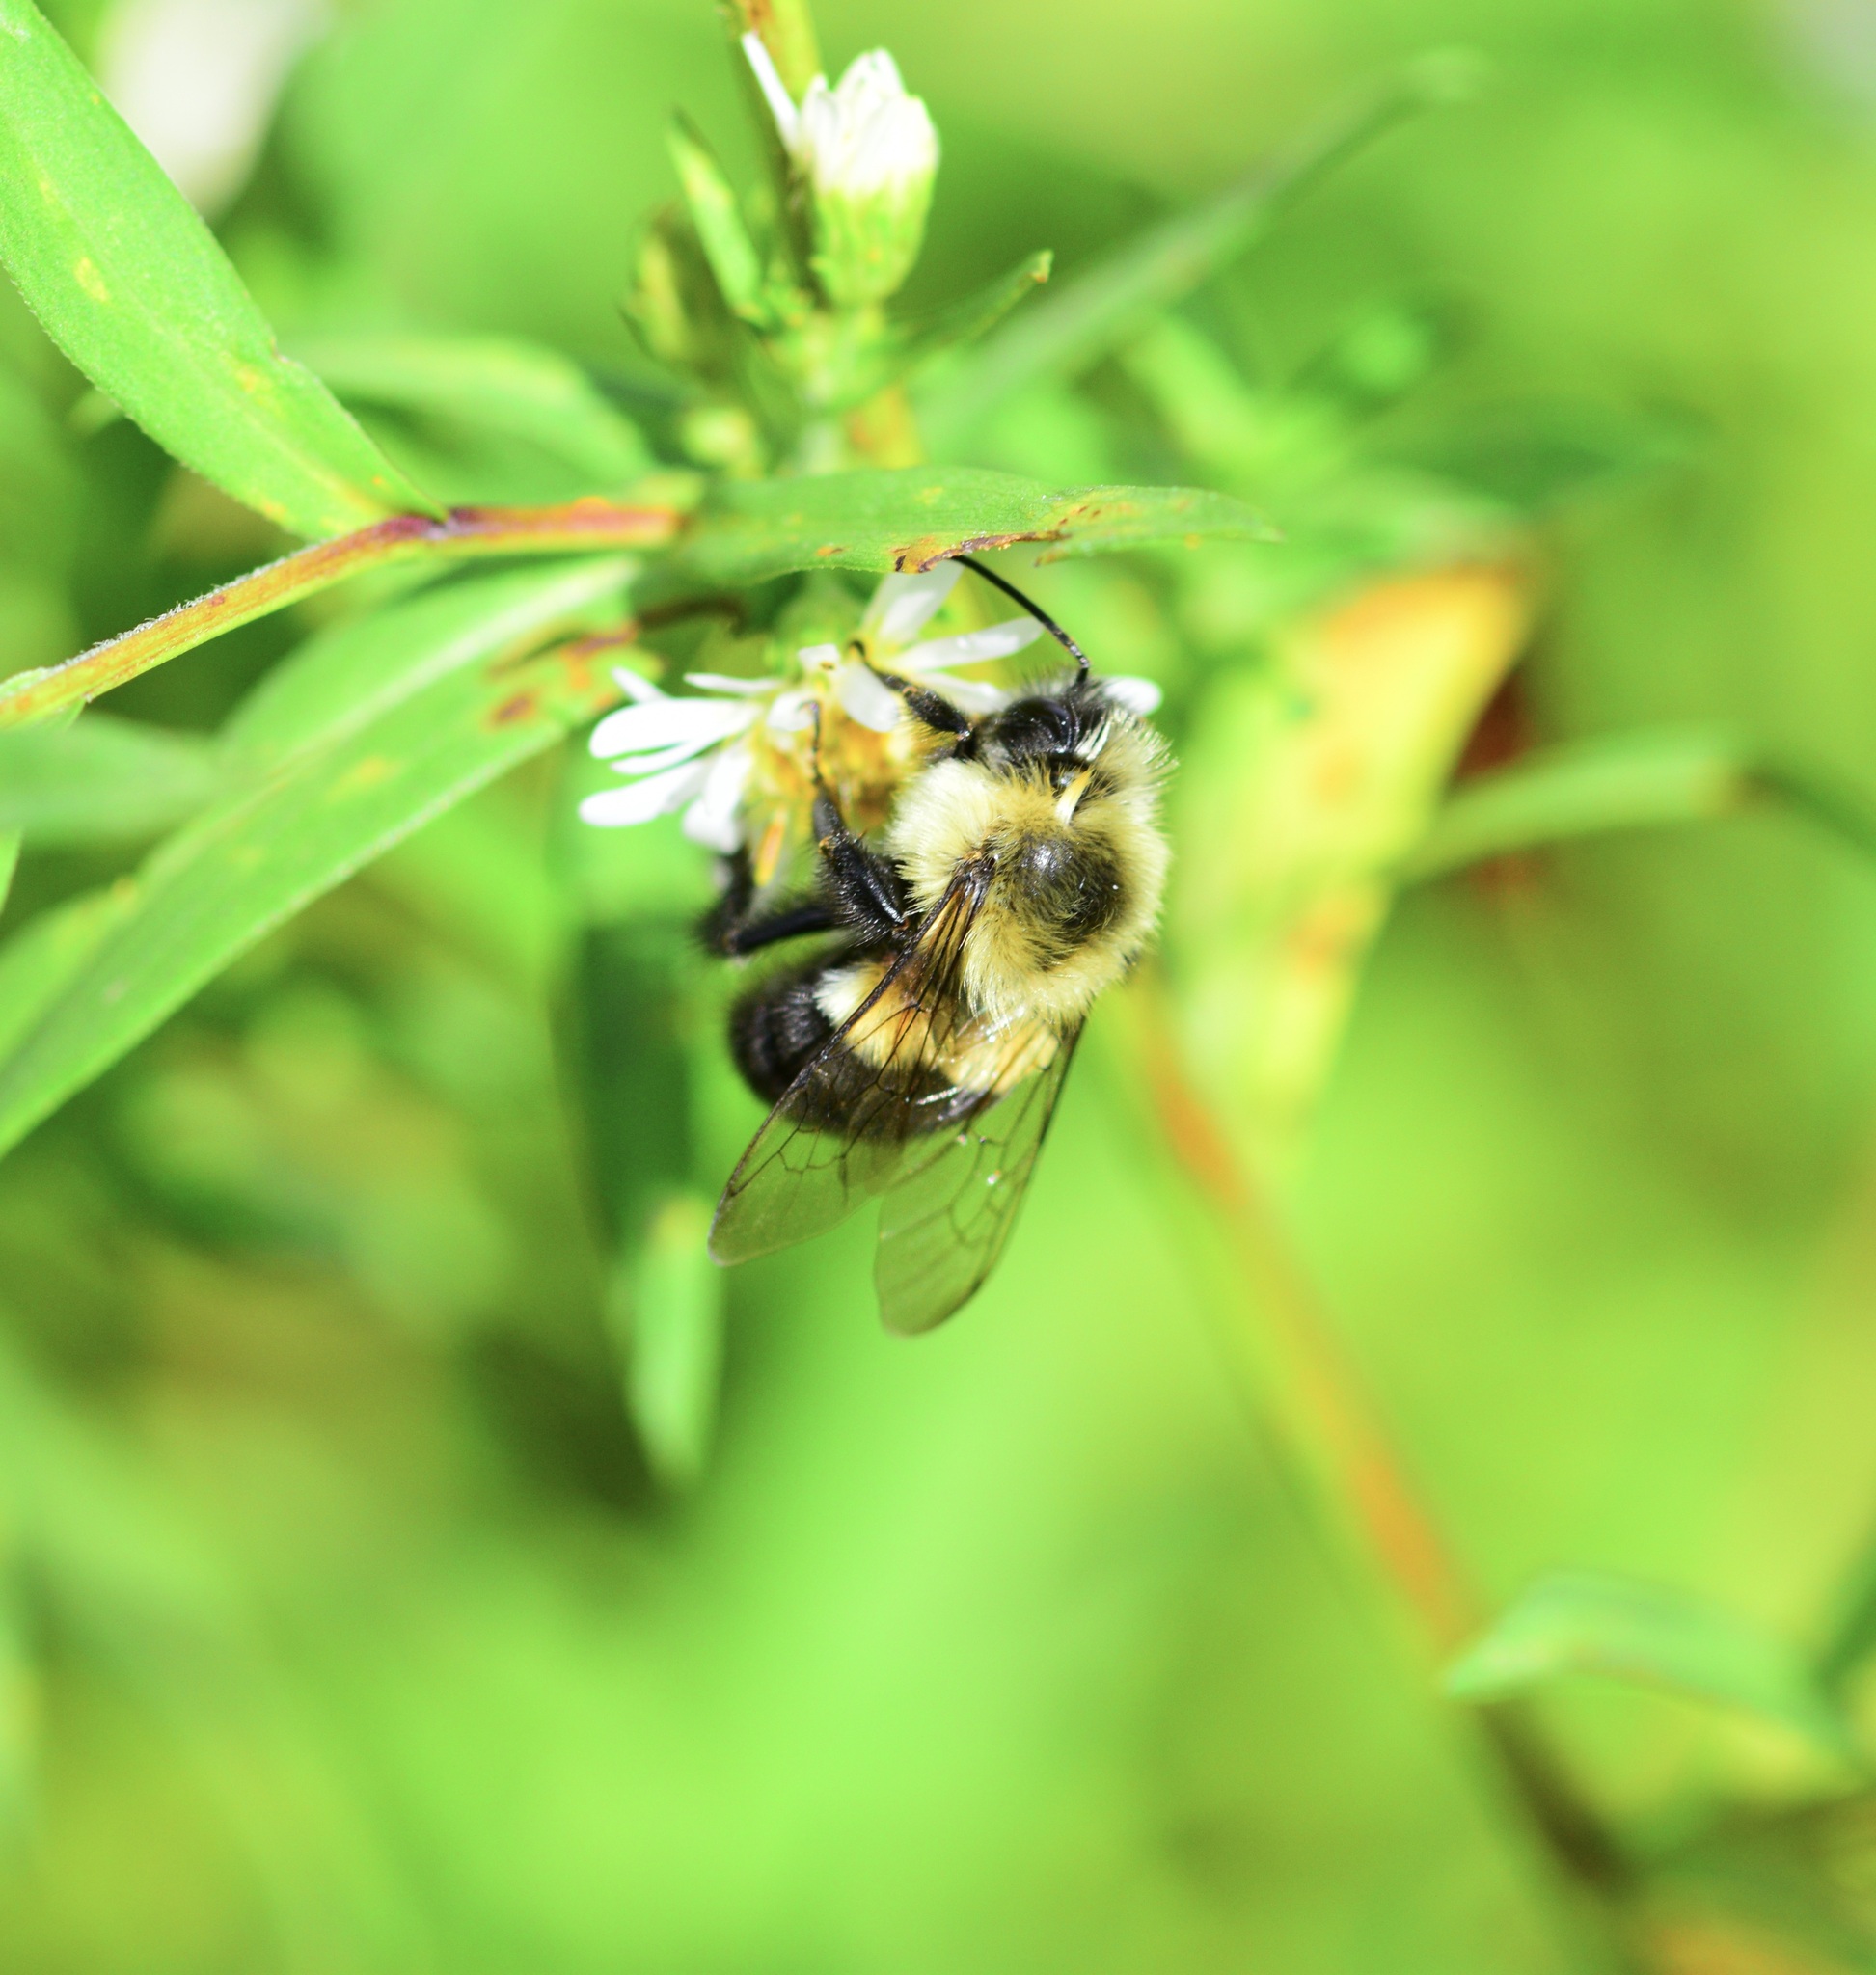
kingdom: Animalia
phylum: Arthropoda
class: Insecta
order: Hymenoptera
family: Apidae
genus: Bombus
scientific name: Bombus impatiens
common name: Common eastern bumble bee
